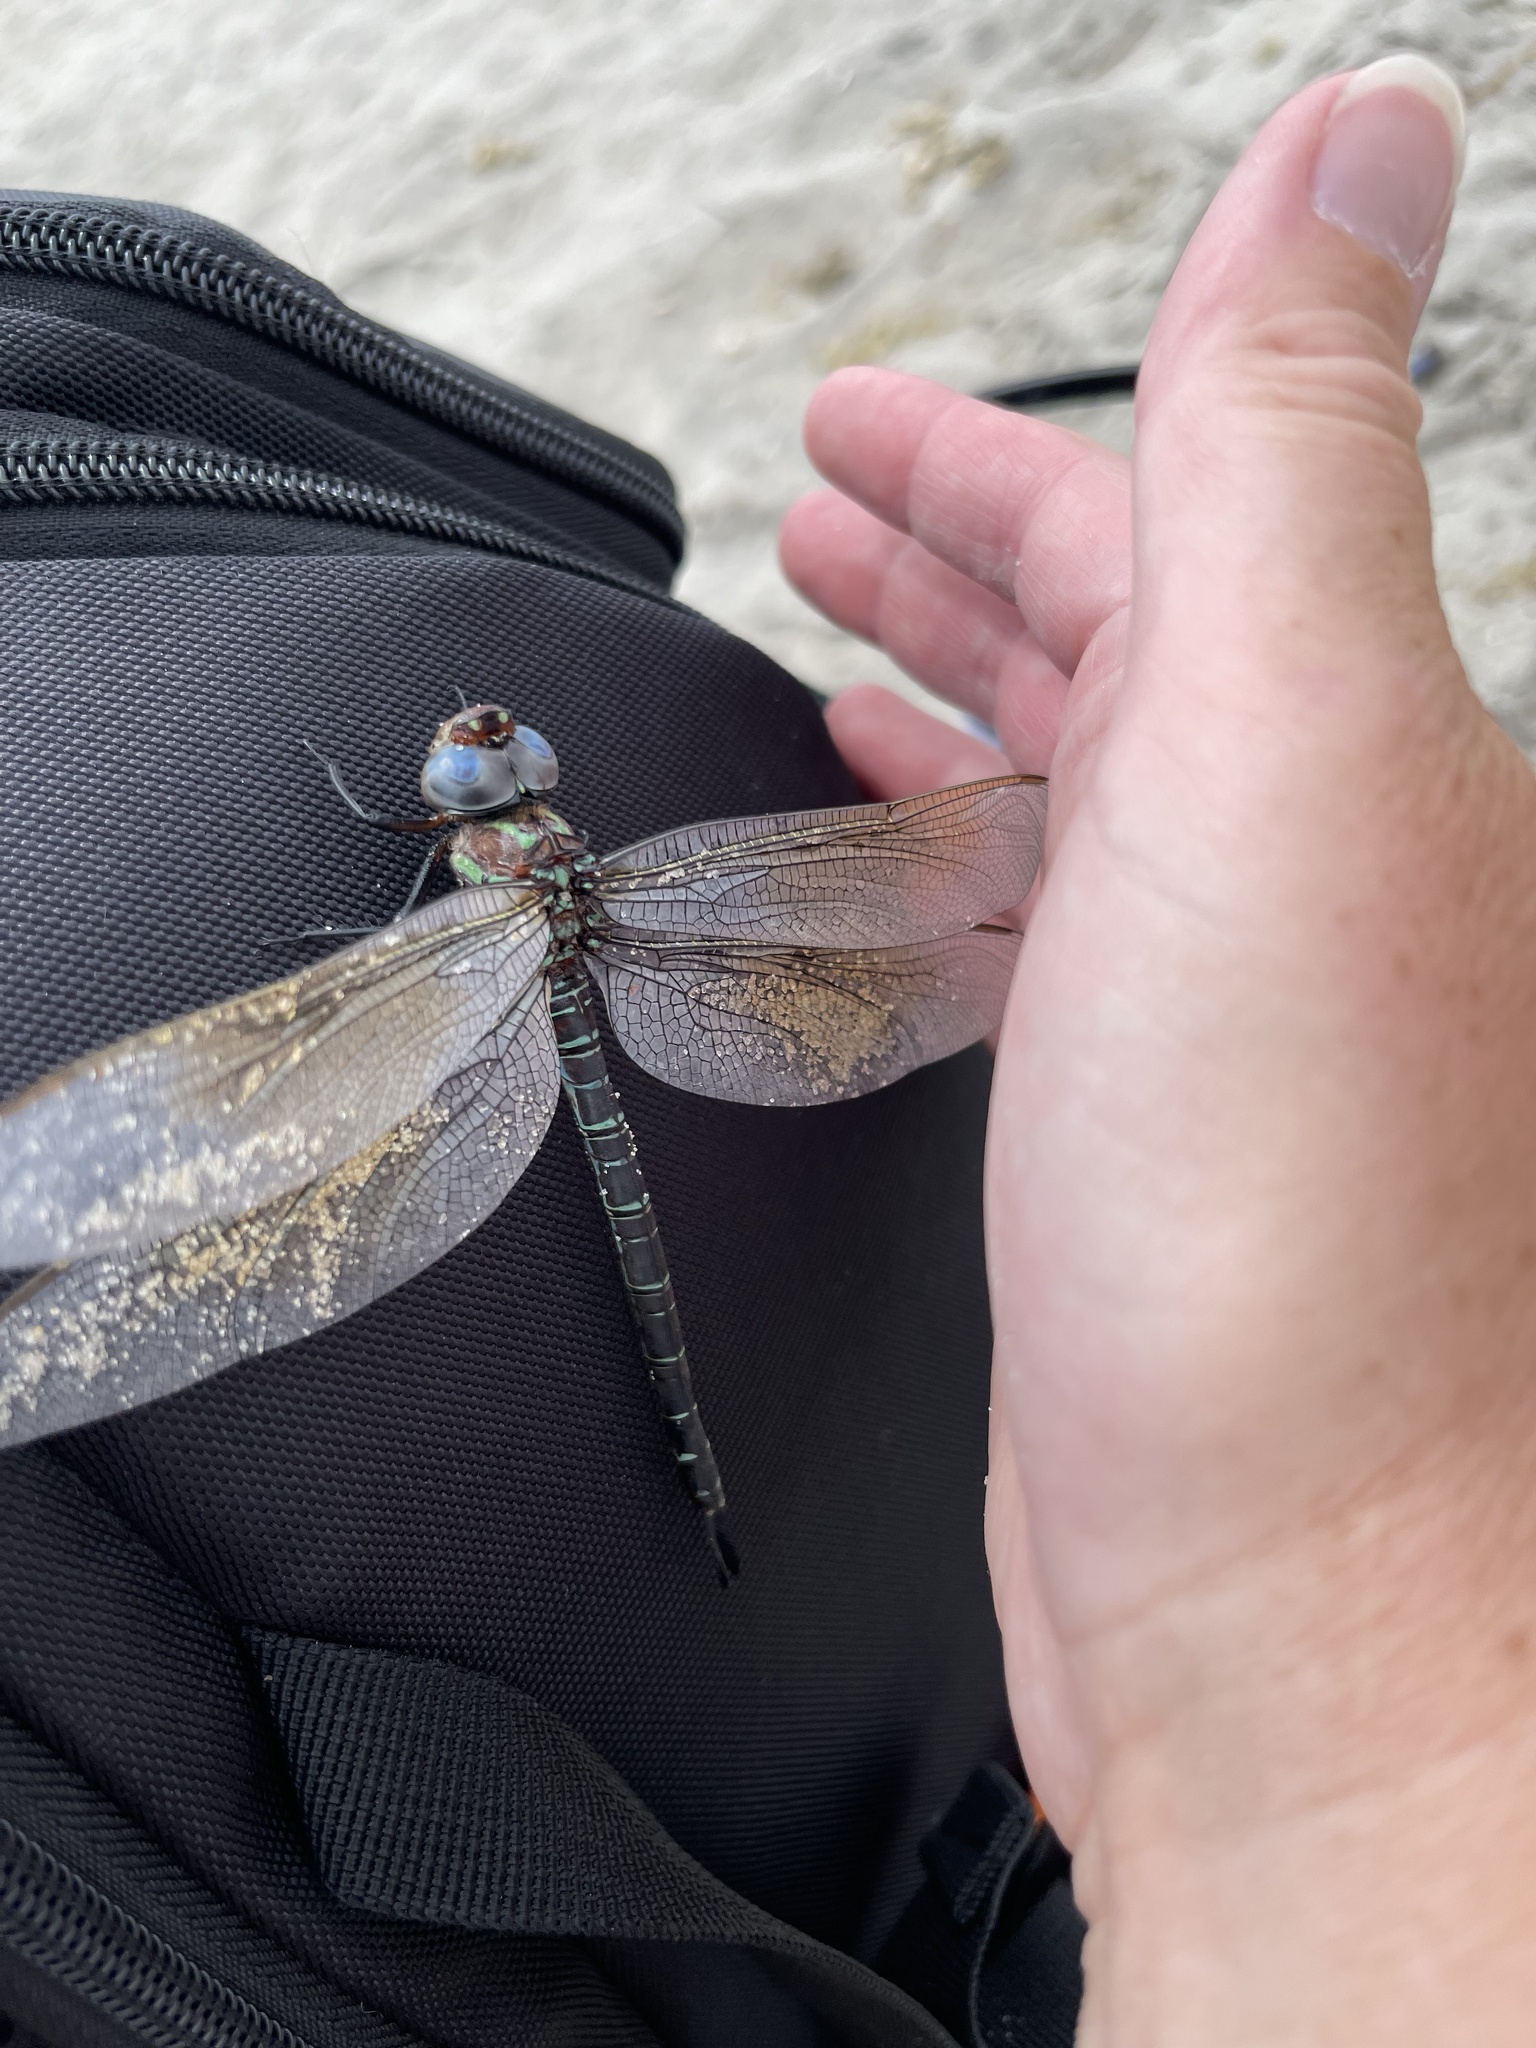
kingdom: Animalia
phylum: Arthropoda
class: Insecta
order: Odonata
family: Aeshnidae
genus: Epiaeschna
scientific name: Epiaeschna heros
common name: Swamp darner
